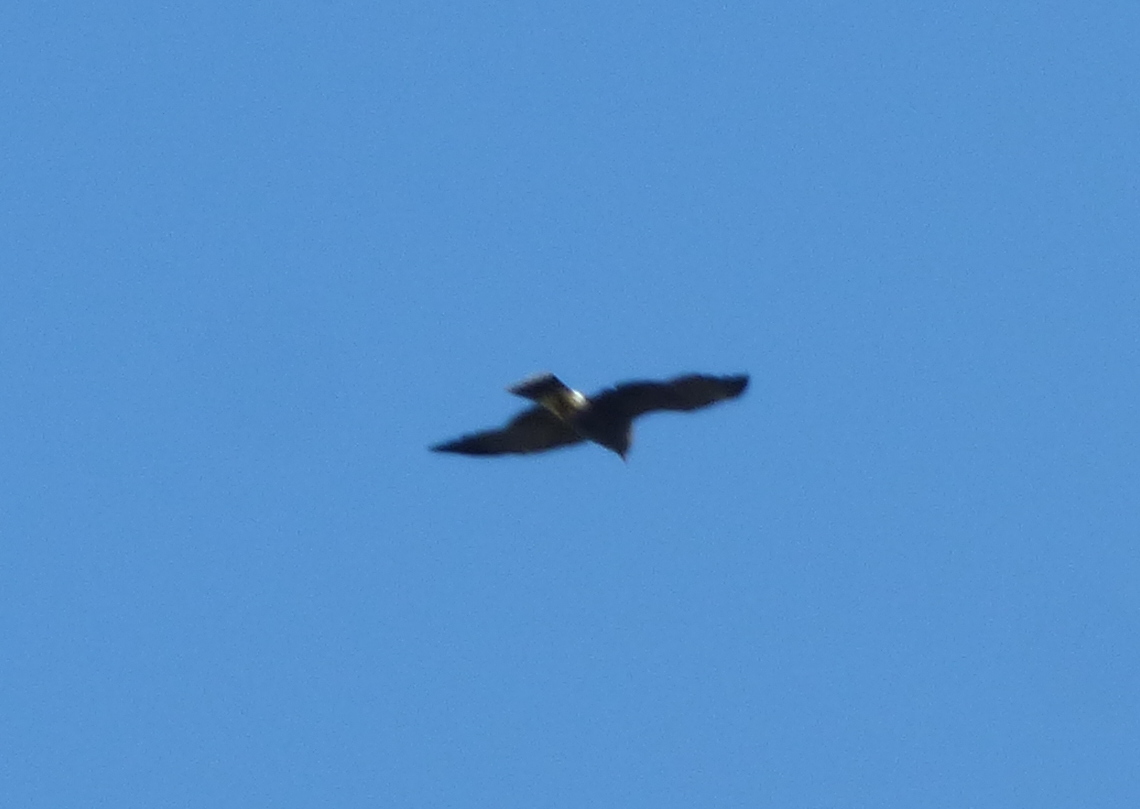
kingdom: Animalia
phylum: Chordata
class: Aves
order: Accipitriformes
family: Accipitridae
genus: Rostrhamus
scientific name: Rostrhamus sociabilis
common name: Snail kite
